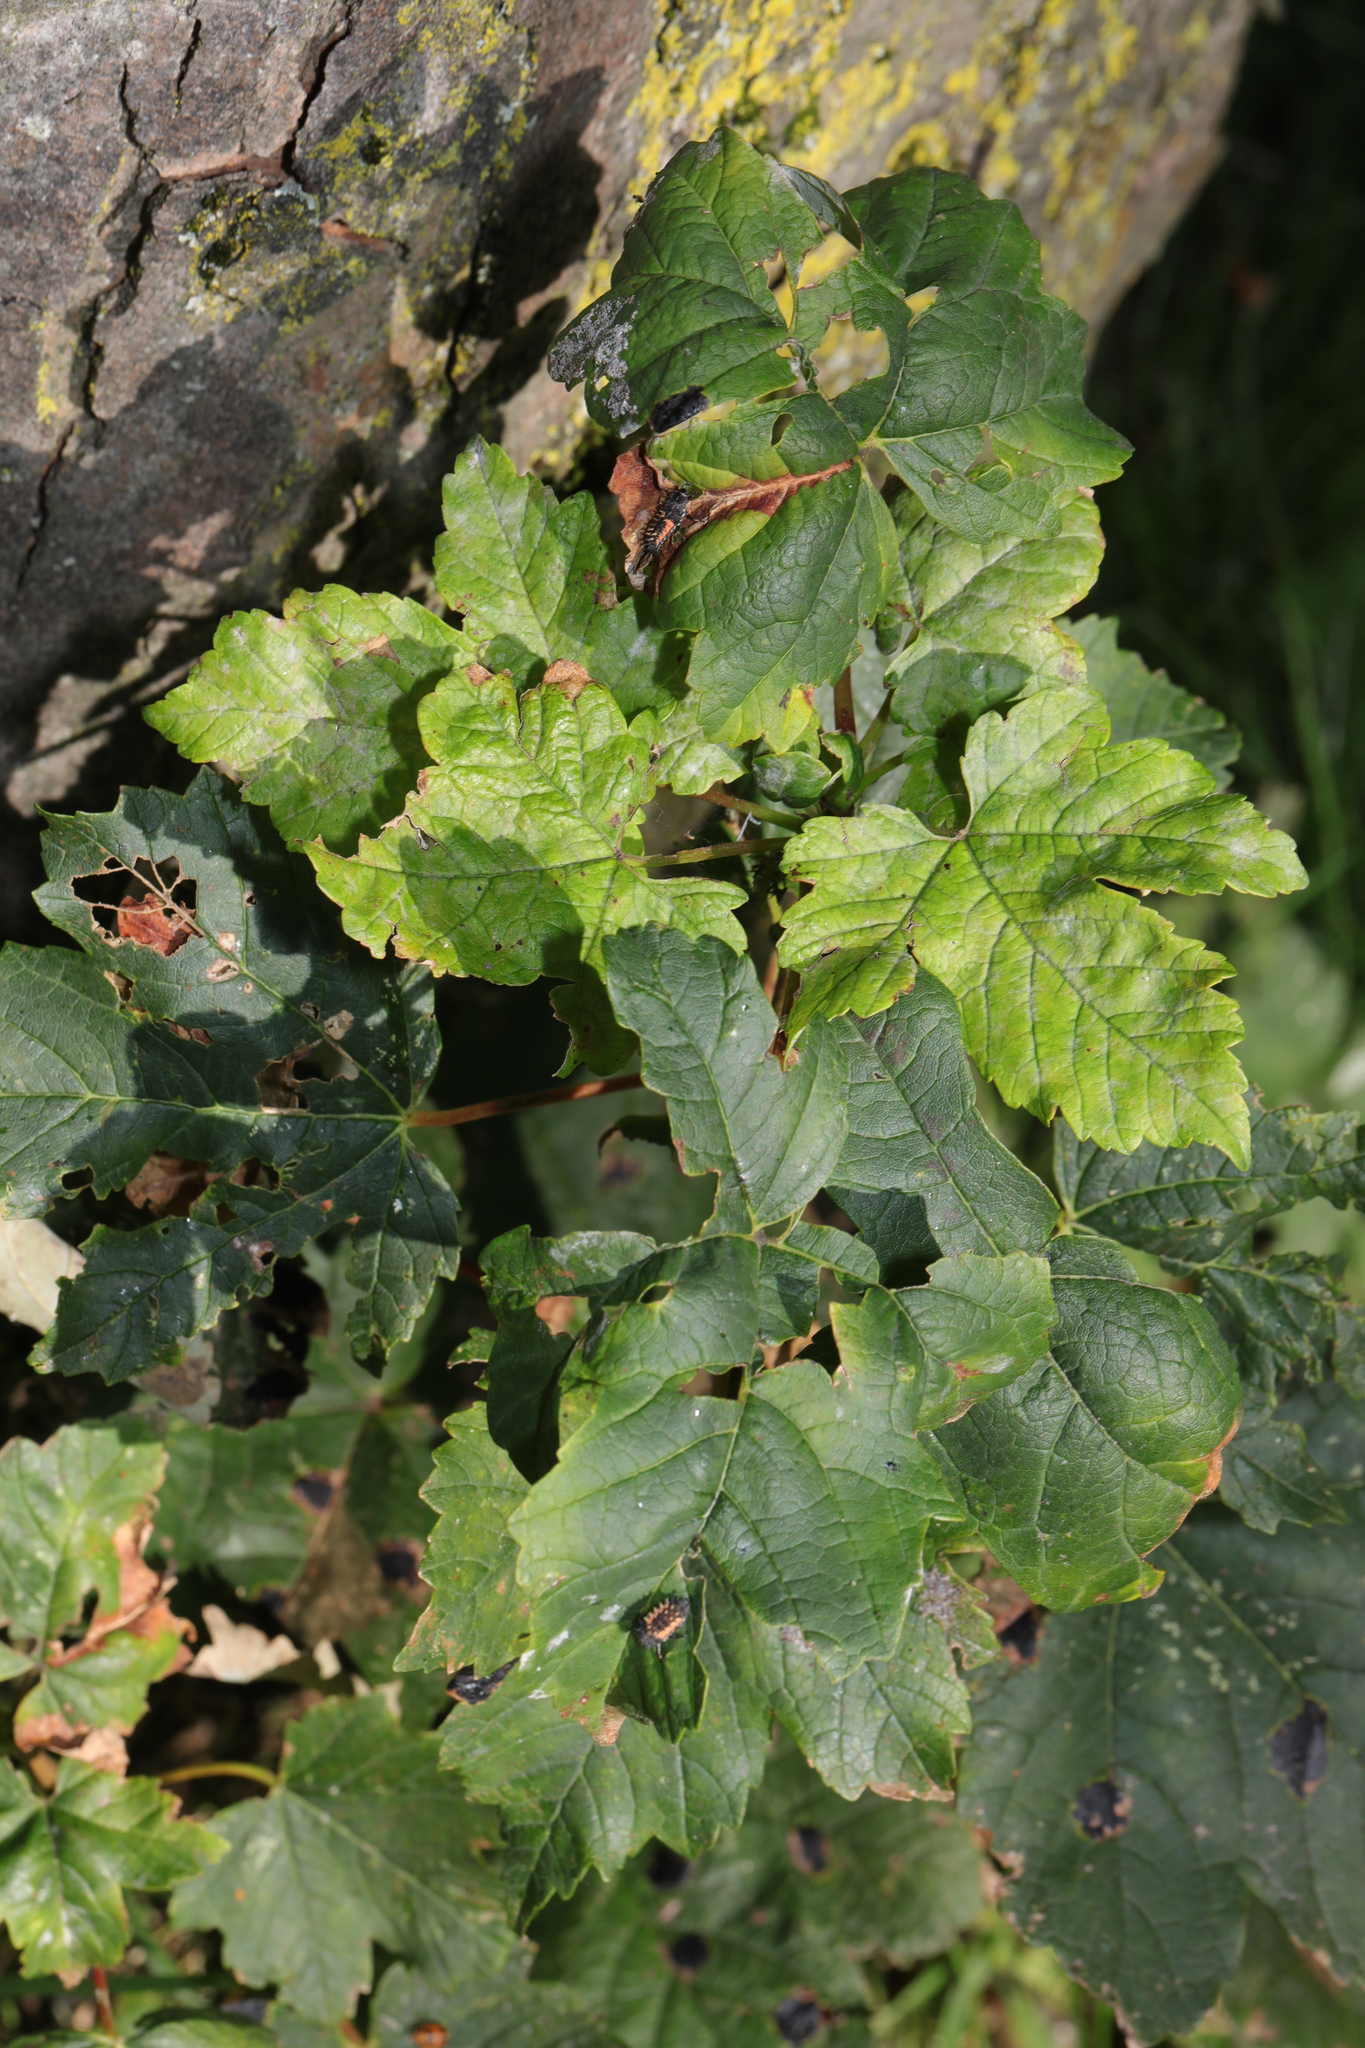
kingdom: Plantae
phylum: Tracheophyta
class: Magnoliopsida
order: Sapindales
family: Sapindaceae
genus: Acer
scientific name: Acer pseudoplatanus
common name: Sycamore
